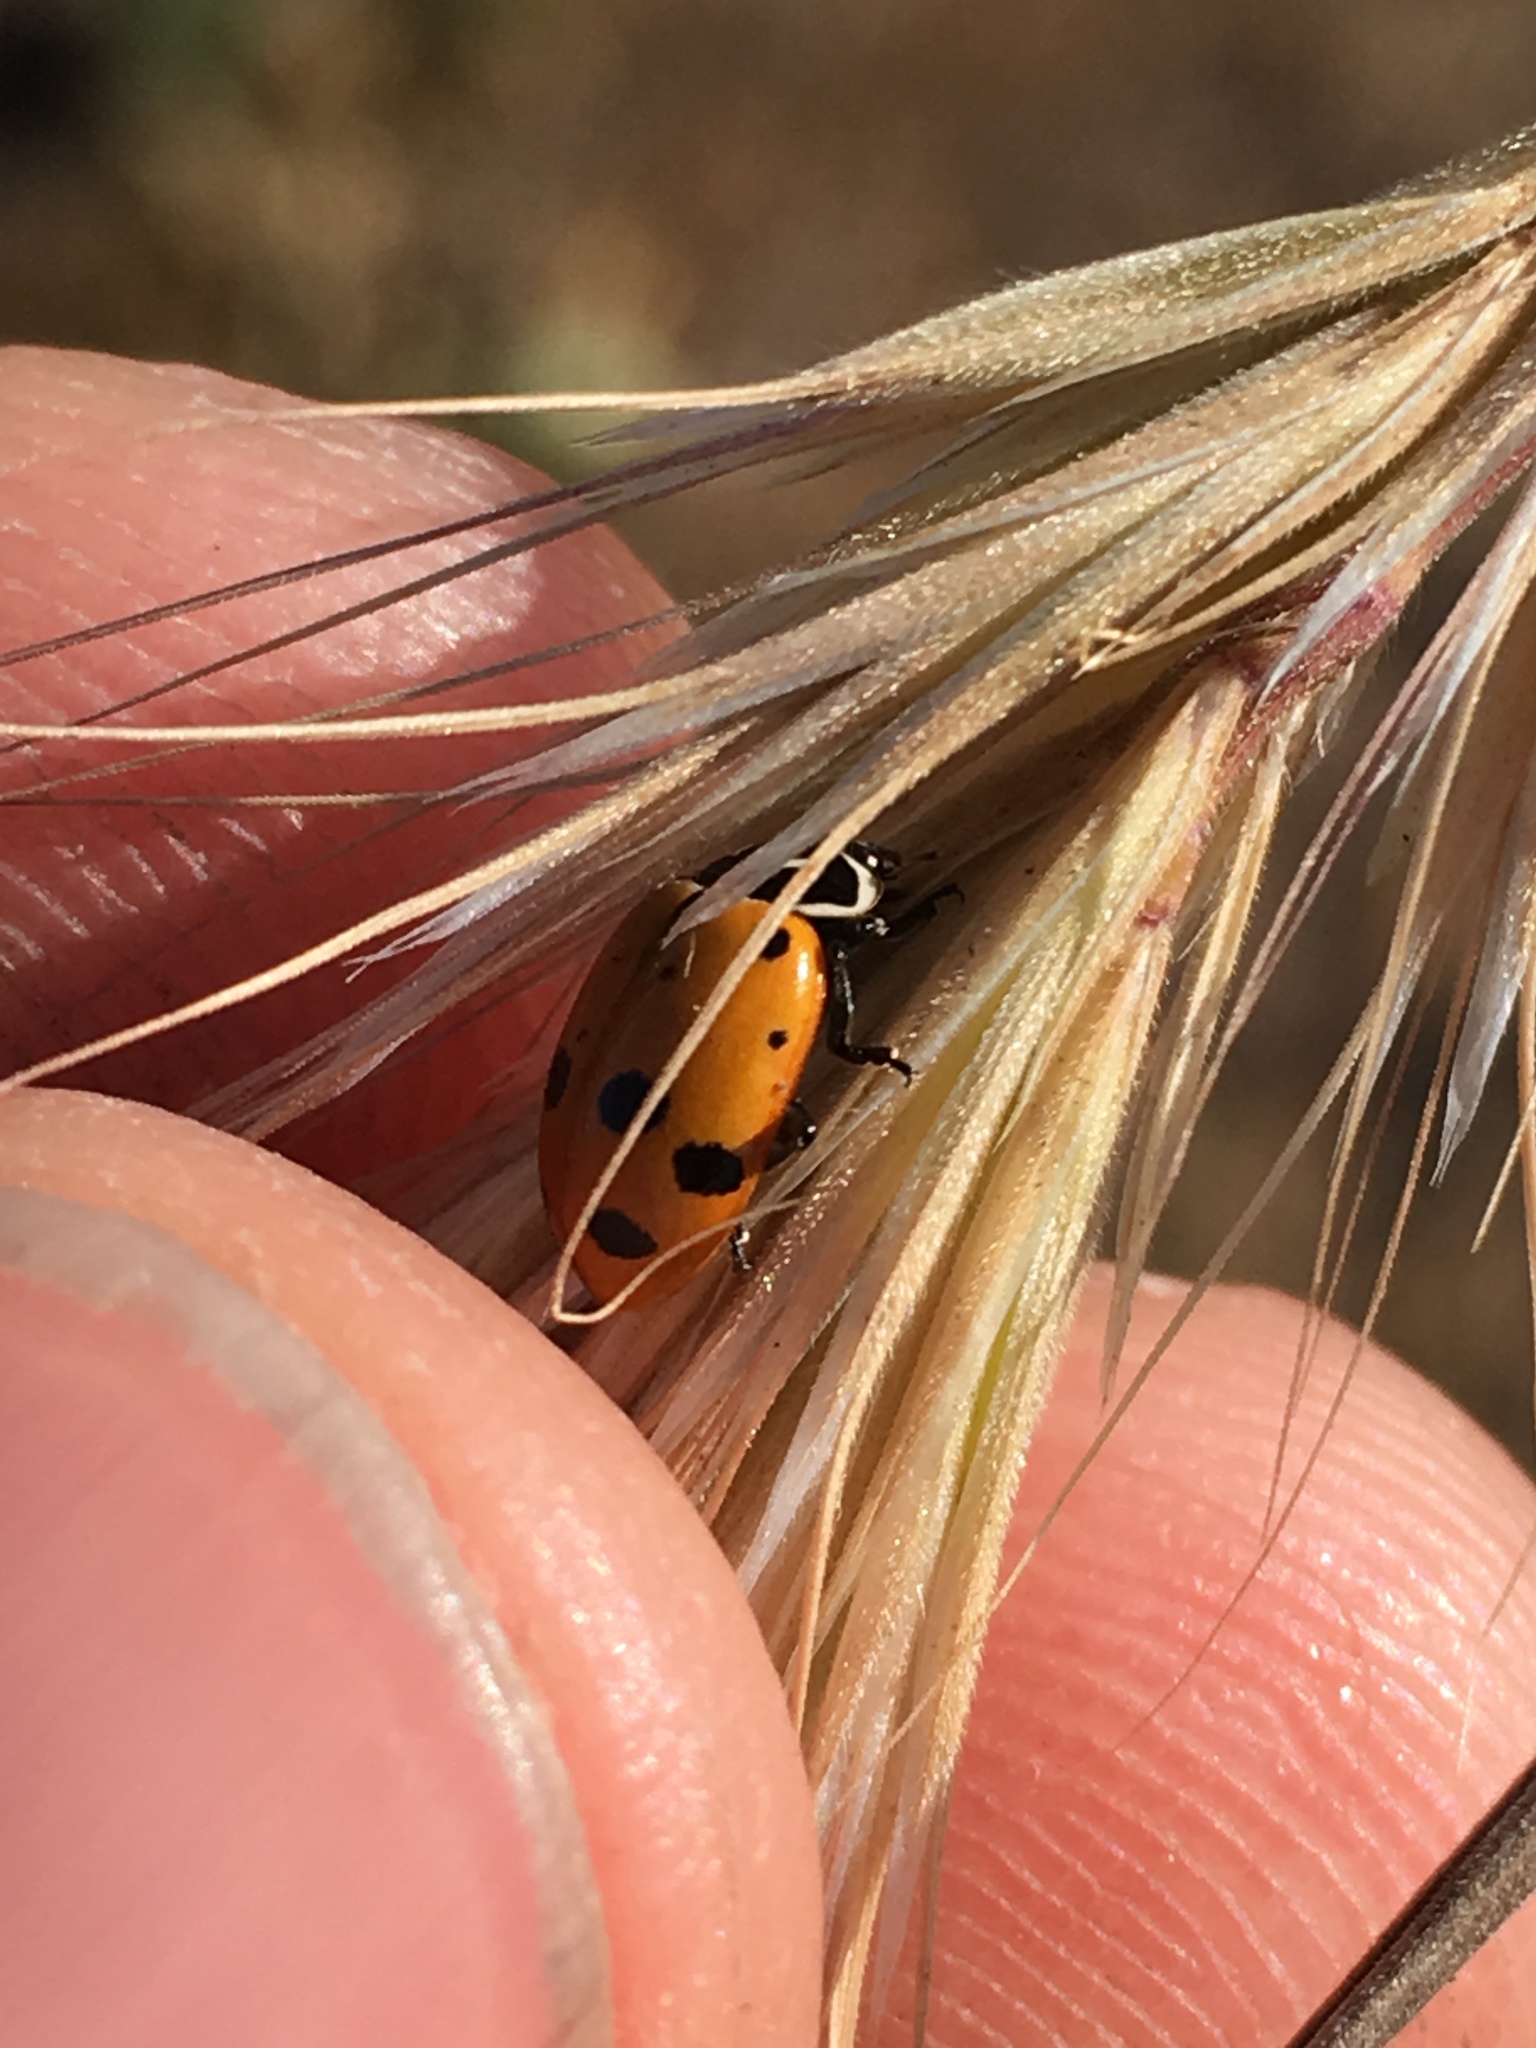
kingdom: Animalia
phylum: Arthropoda
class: Insecta
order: Coleoptera
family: Coccinellidae
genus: Hippodamia
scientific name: Hippodamia convergens
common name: Convergent lady beetle
